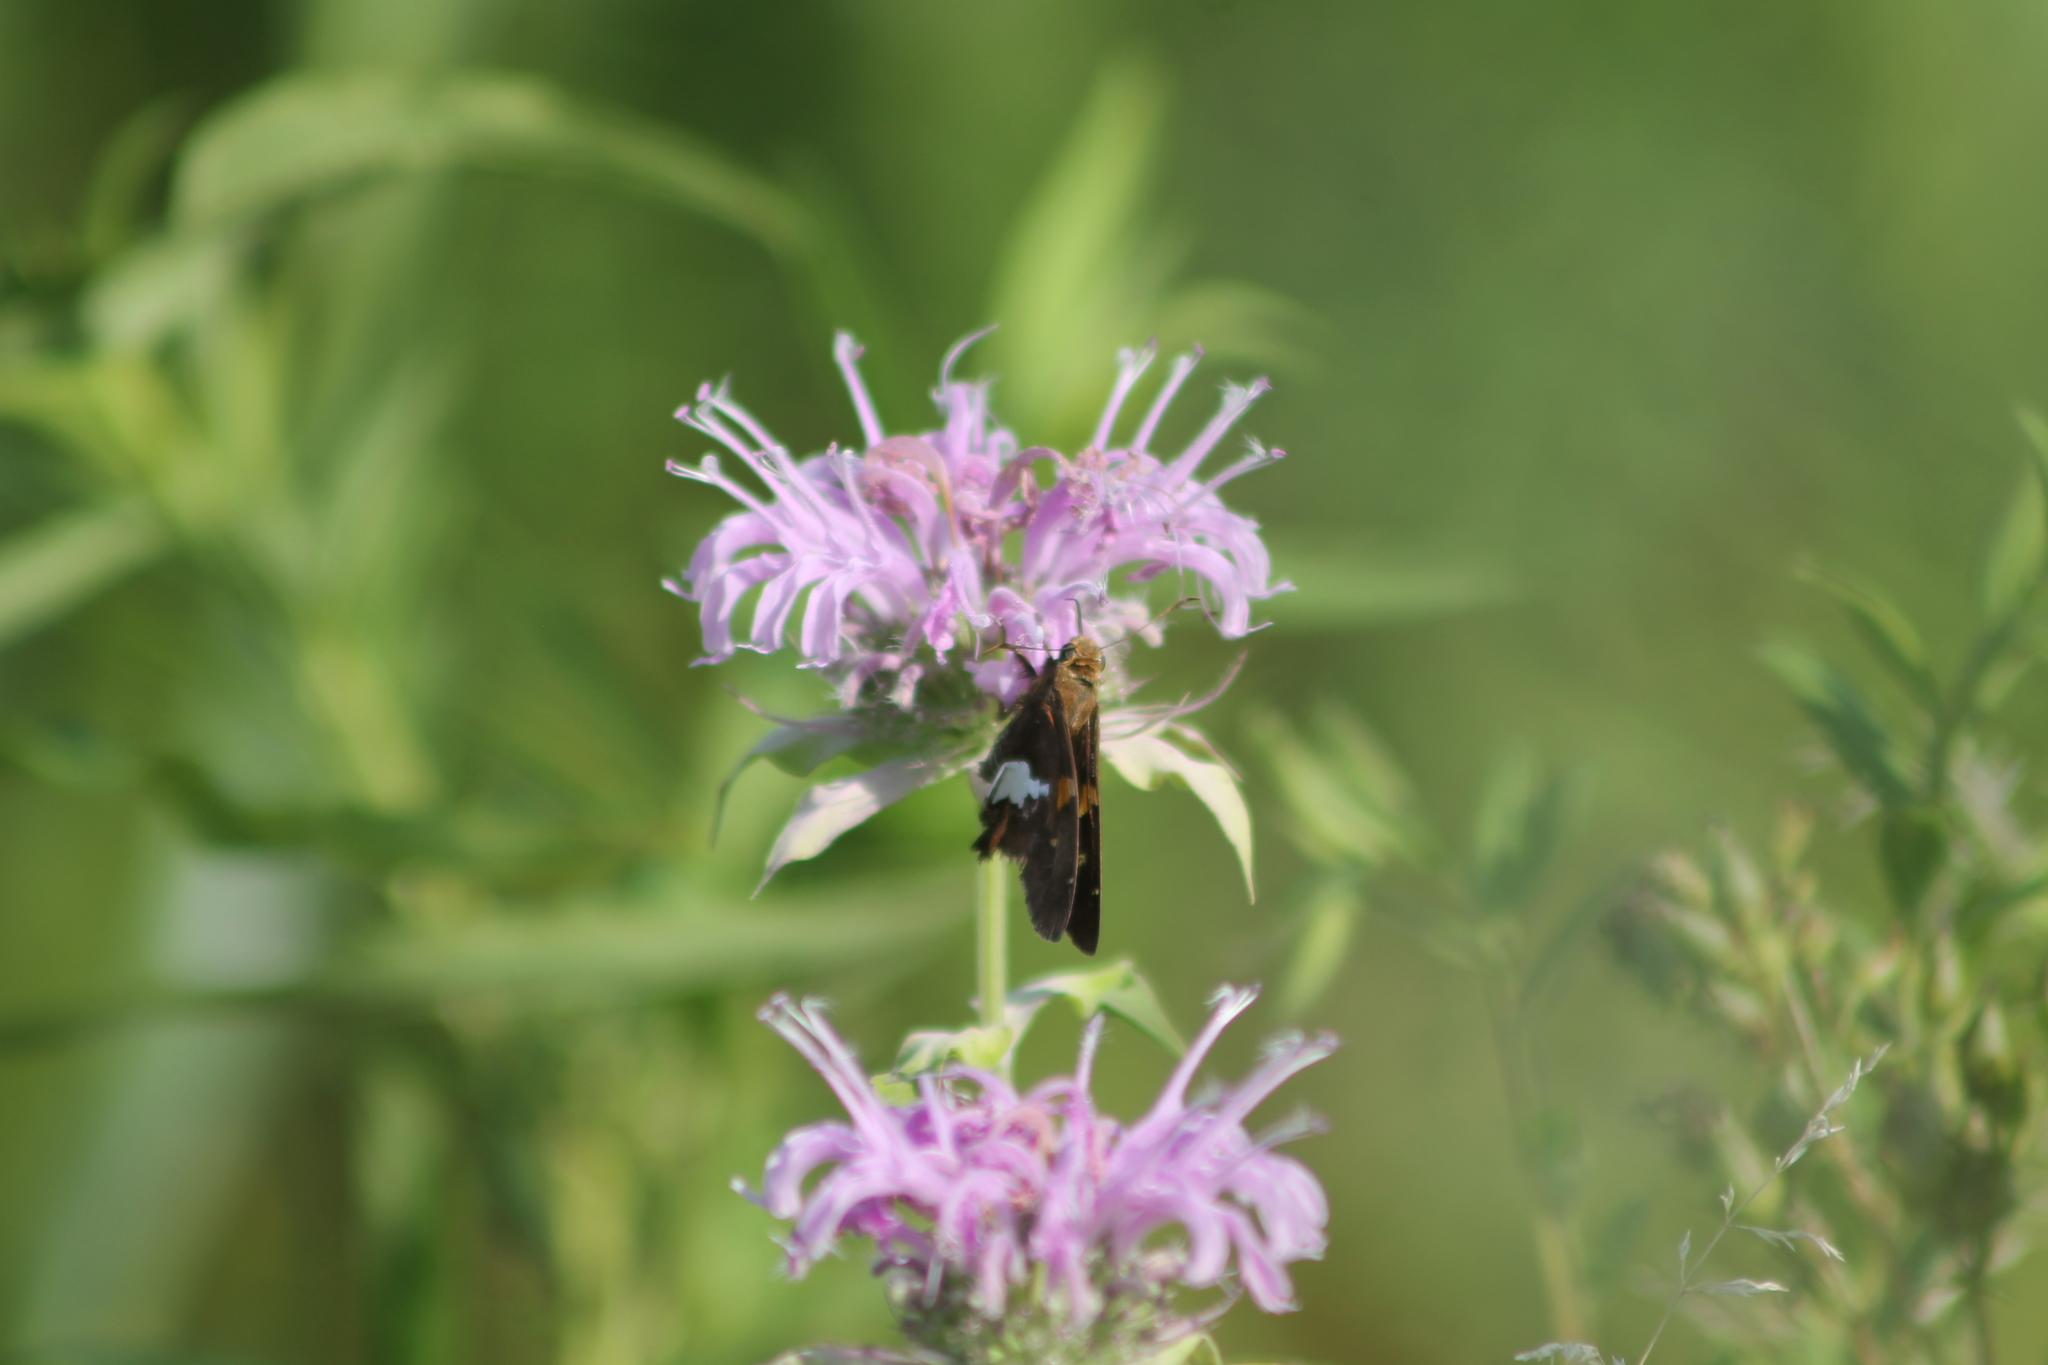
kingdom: Animalia
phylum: Arthropoda
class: Insecta
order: Lepidoptera
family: Hesperiidae
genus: Epargyreus
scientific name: Epargyreus clarus
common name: Silver-spotted skipper
